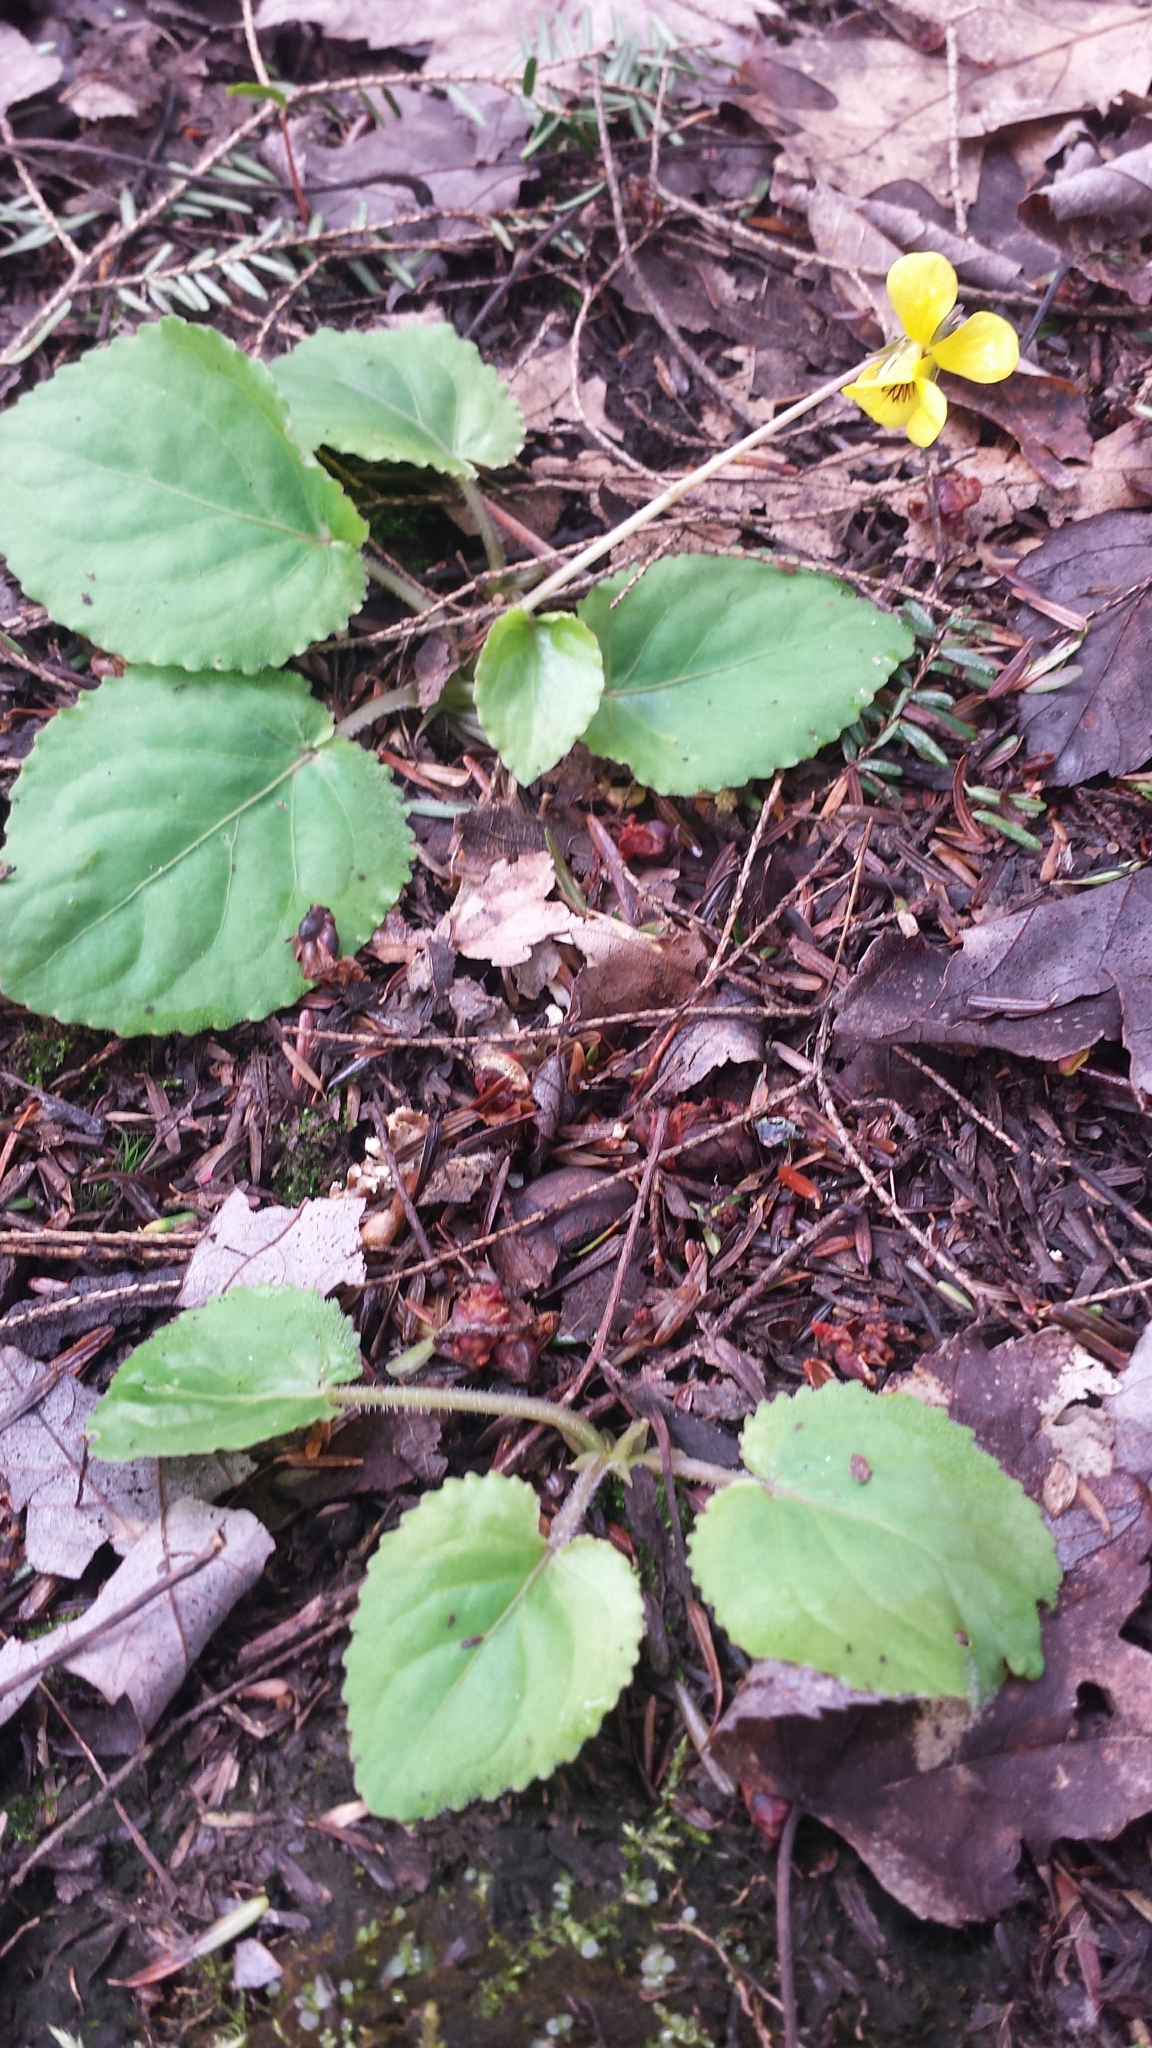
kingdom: Plantae
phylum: Tracheophyta
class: Magnoliopsida
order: Malpighiales
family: Violaceae
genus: Viola
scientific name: Viola rotundifolia
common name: Early yellow violet
